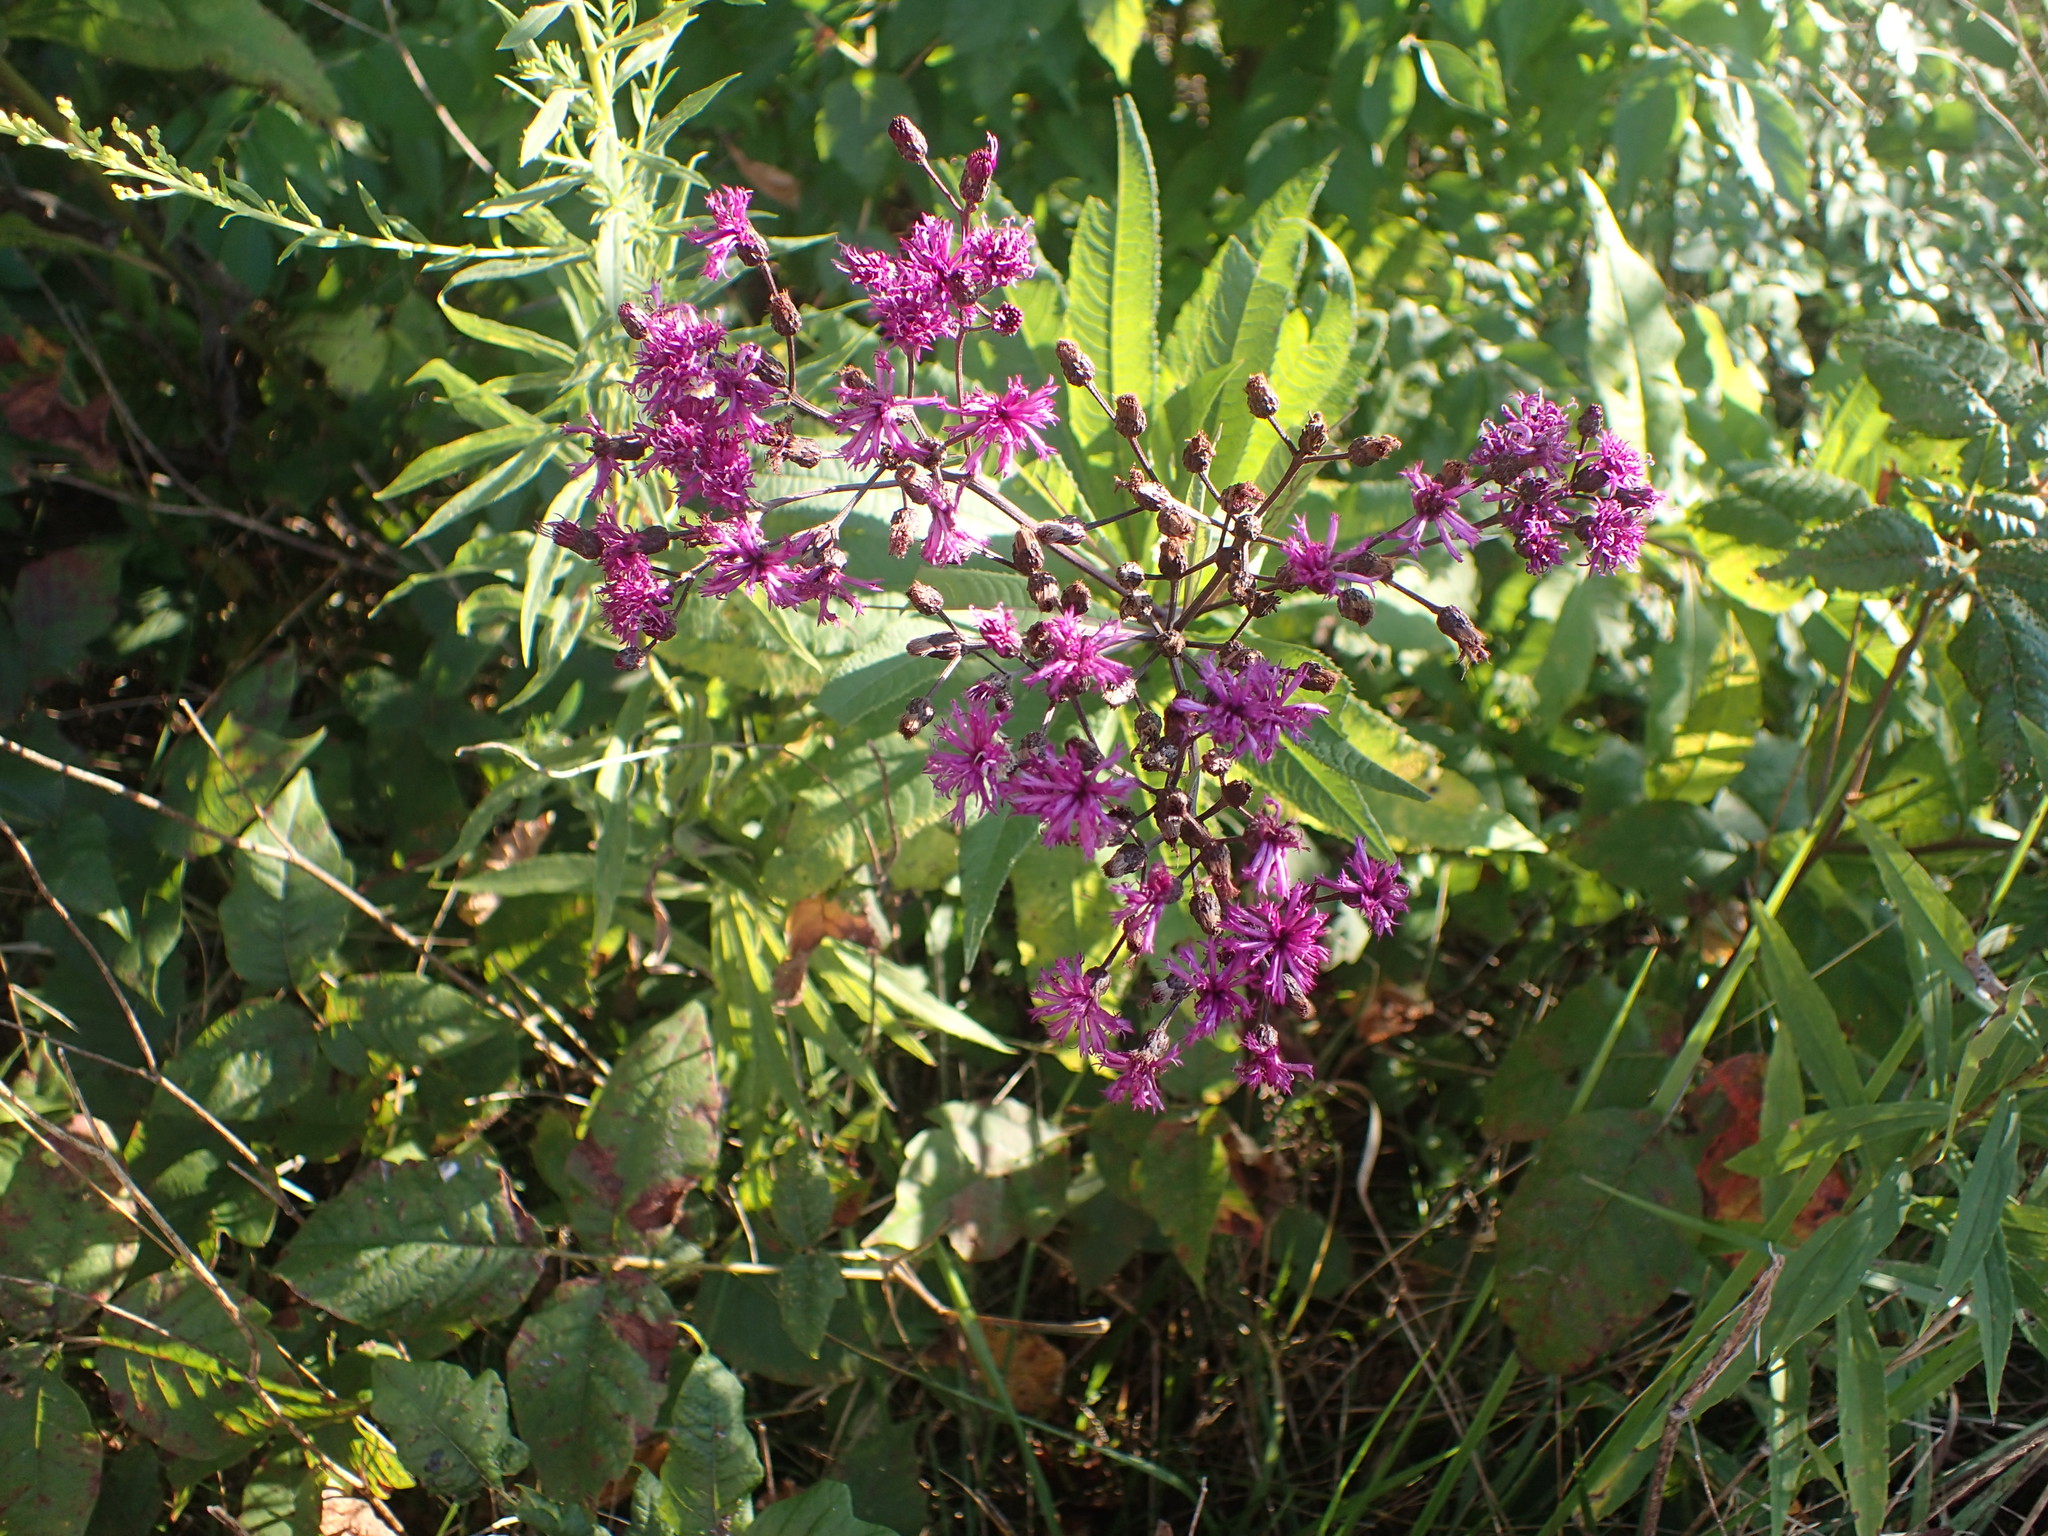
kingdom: Plantae
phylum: Tracheophyta
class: Magnoliopsida
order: Asterales
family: Asteraceae
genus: Vernonia
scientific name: Vernonia gigantea
